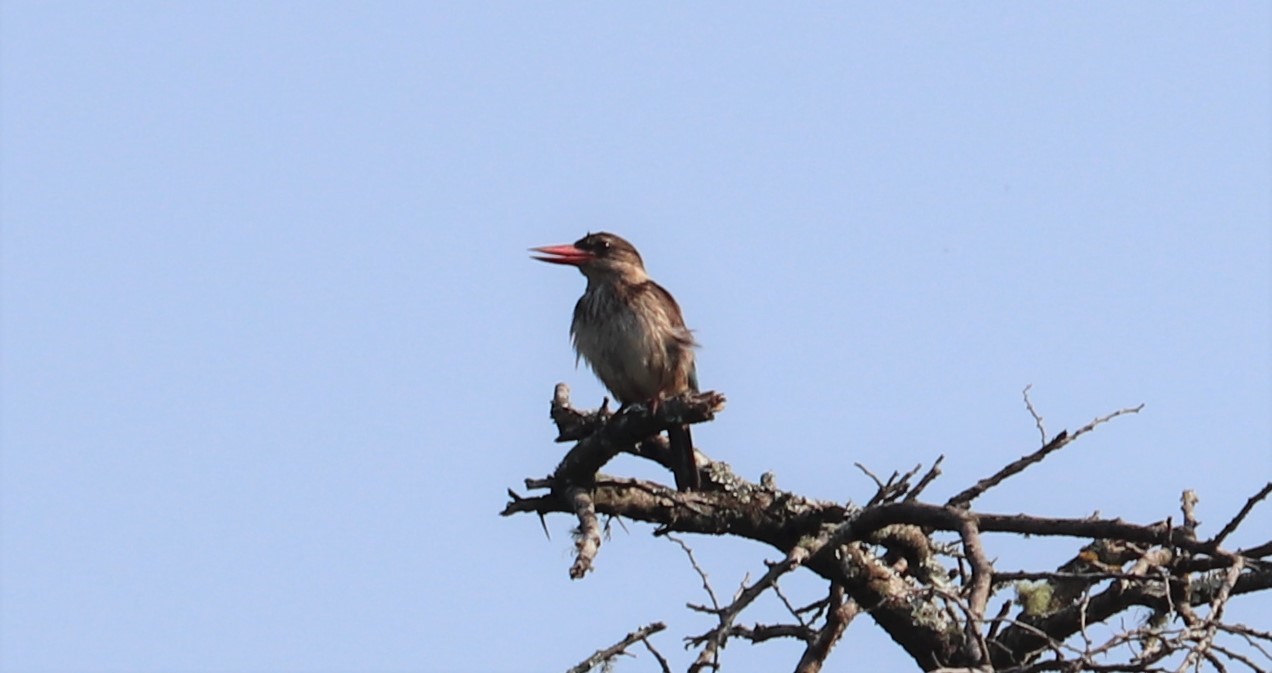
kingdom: Animalia
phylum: Chordata
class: Aves
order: Coraciiformes
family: Alcedinidae
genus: Halcyon
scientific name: Halcyon albiventris
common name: Brown-hooded kingfisher
